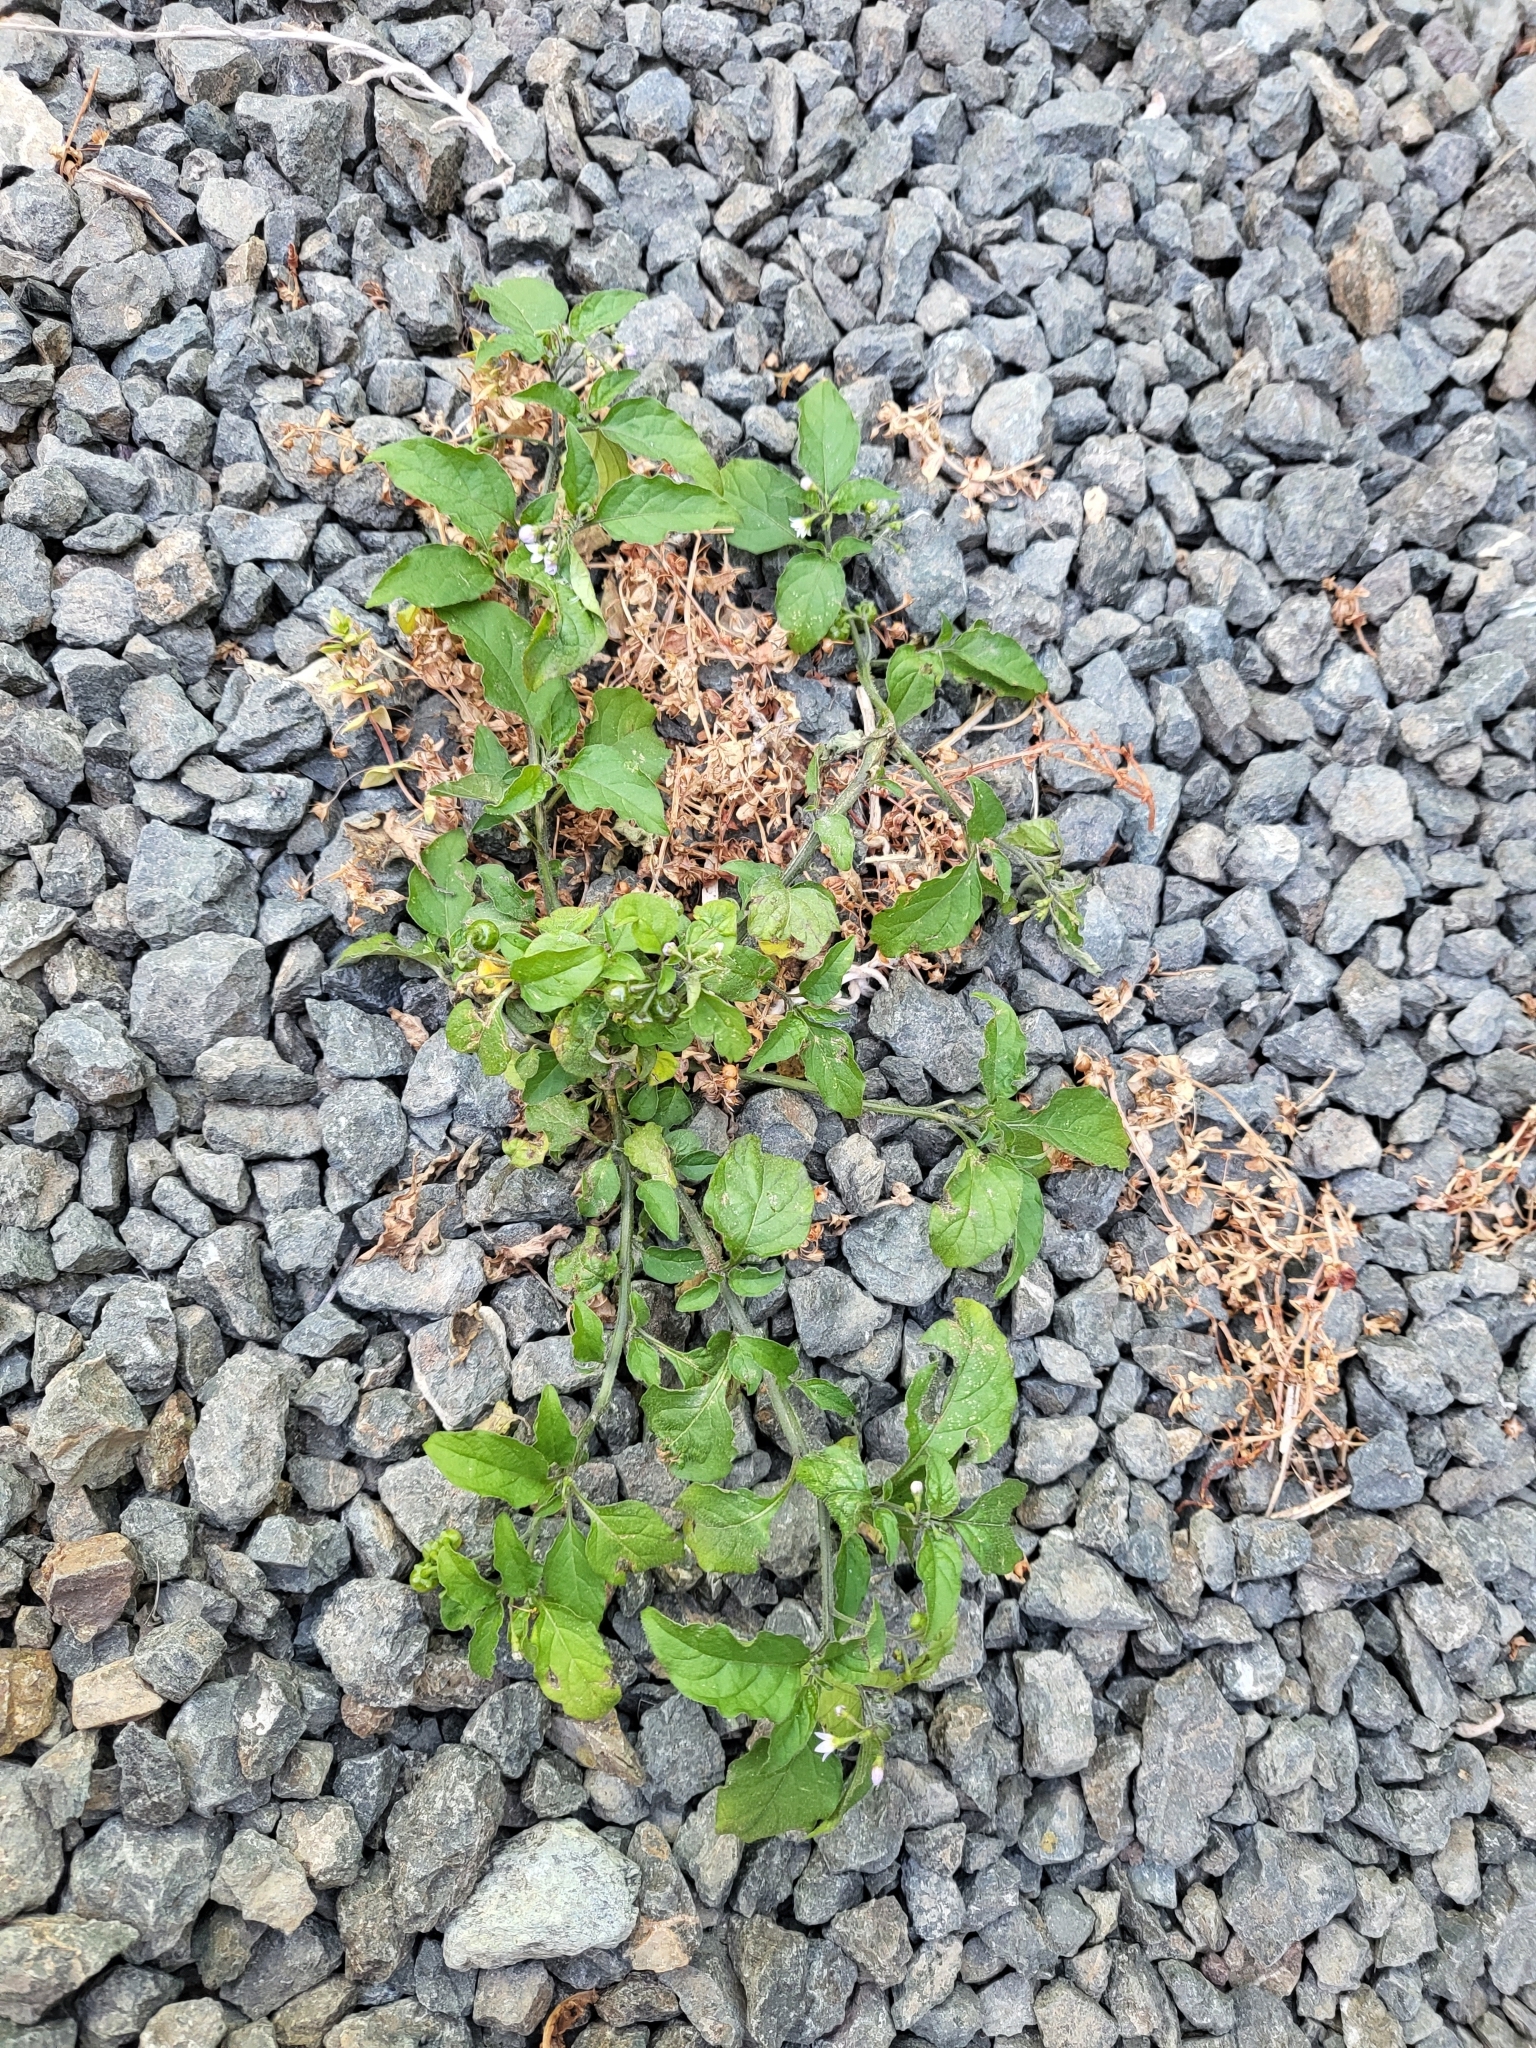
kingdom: Plantae
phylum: Tracheophyta
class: Magnoliopsida
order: Solanales
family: Solanaceae
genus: Solanum
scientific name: Solanum americanum
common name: American black nightshade
